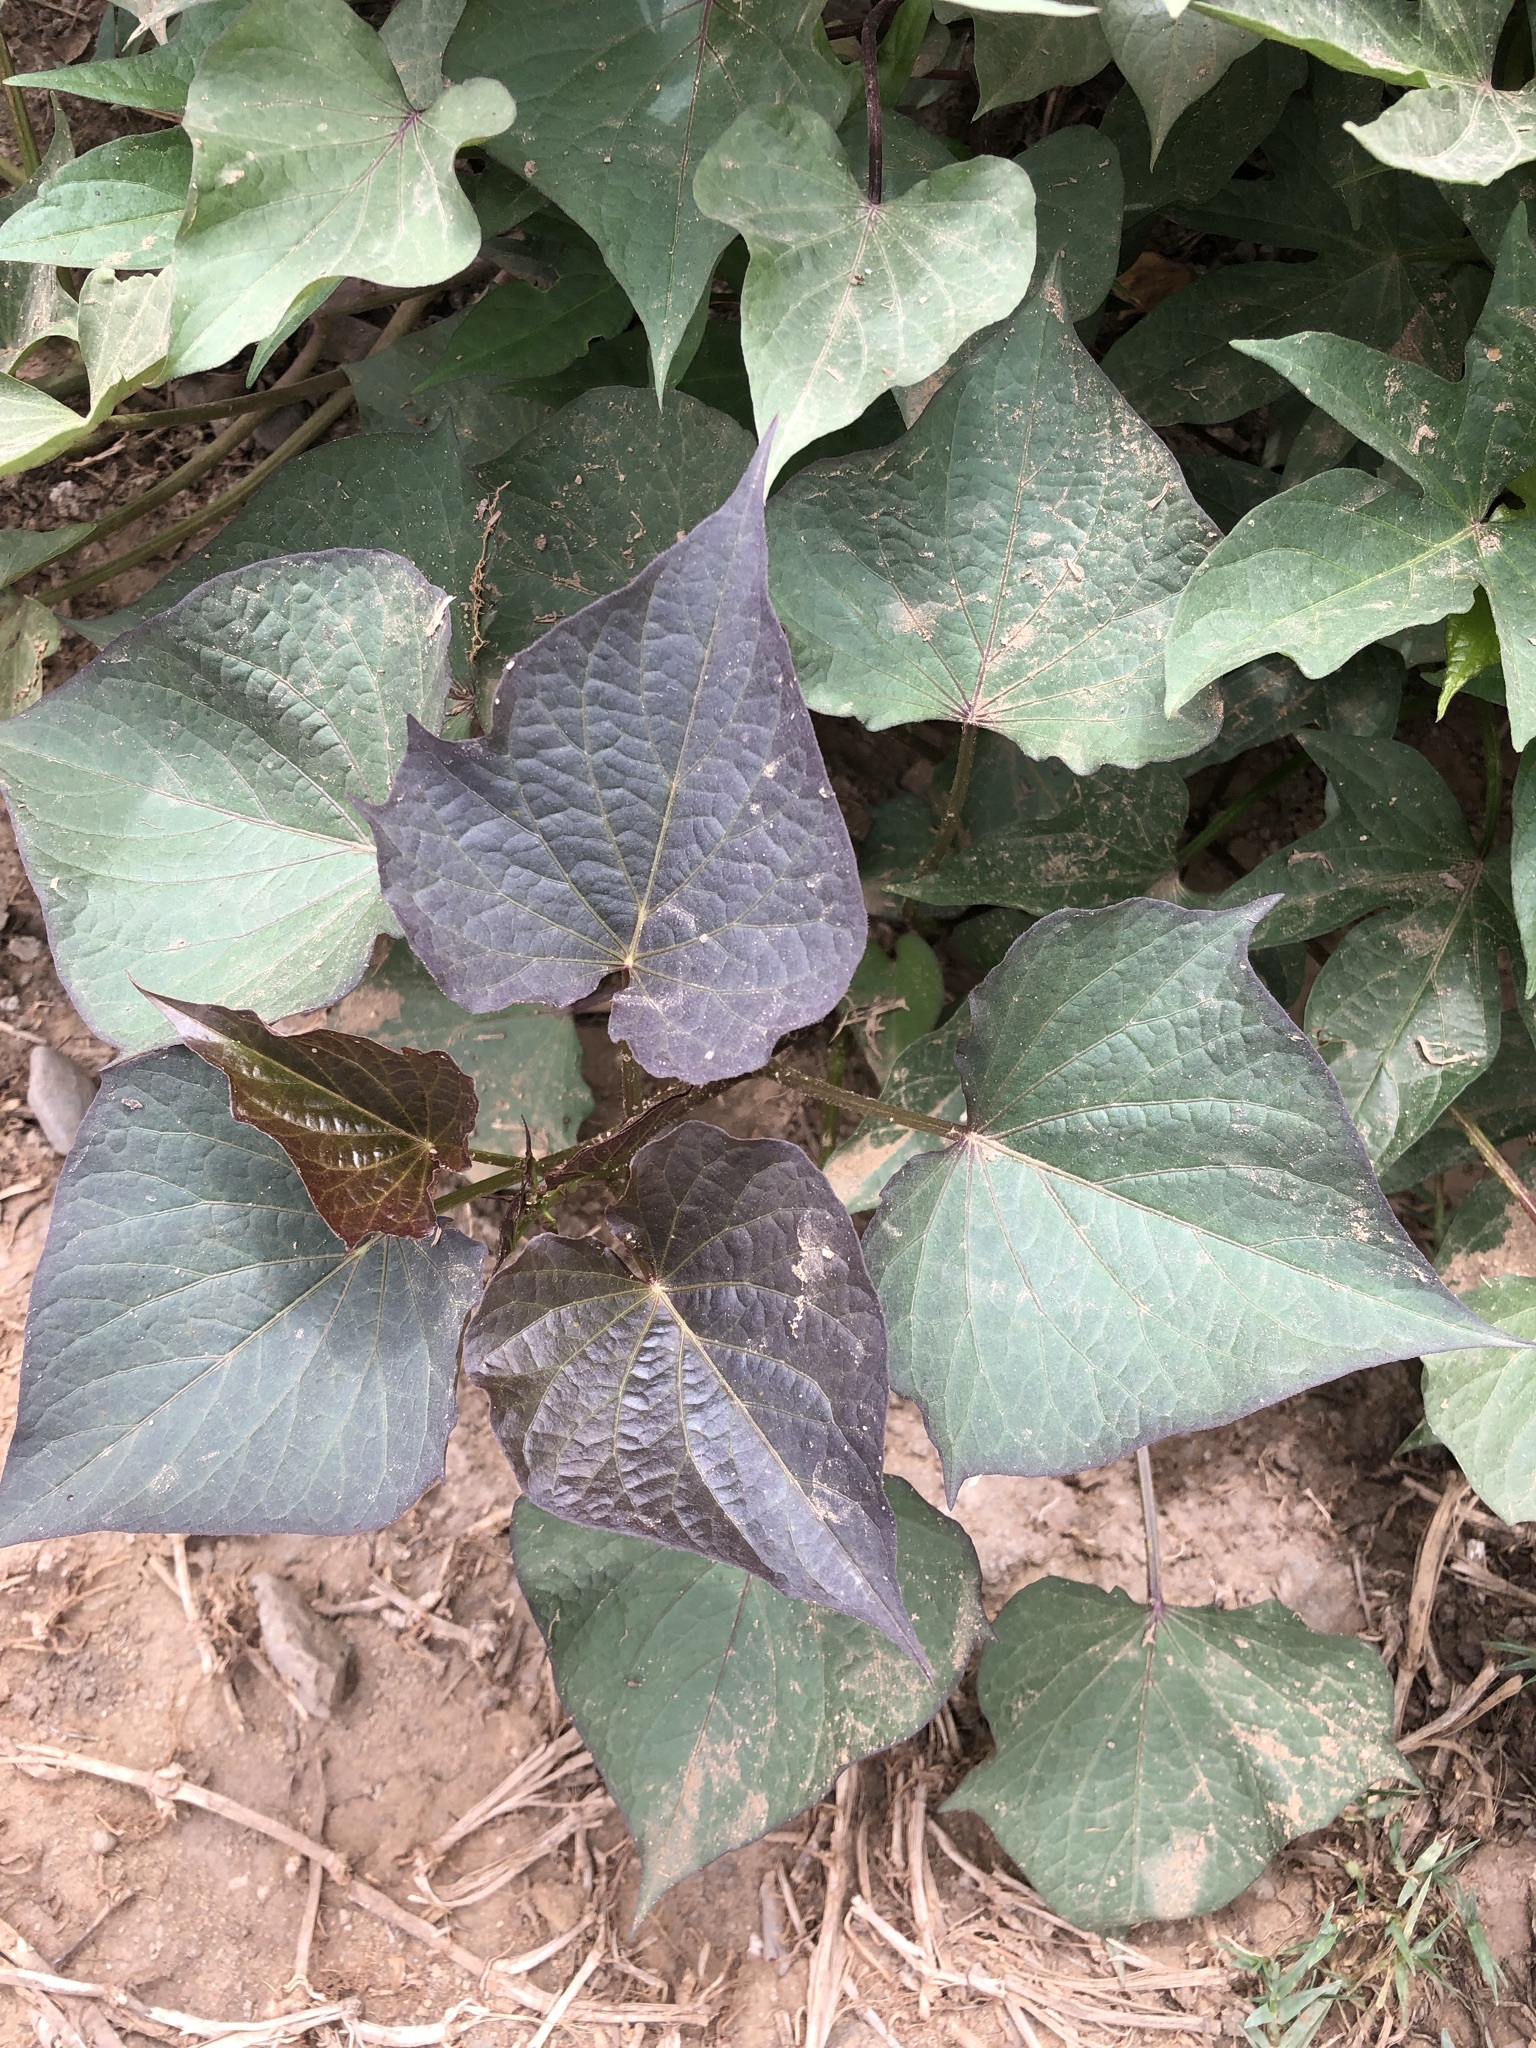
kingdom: Plantae
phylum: Tracheophyta
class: Magnoliopsida
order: Solanales
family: Convolvulaceae
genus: Ipomoea
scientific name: Ipomoea batatas
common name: Sweet-potato
